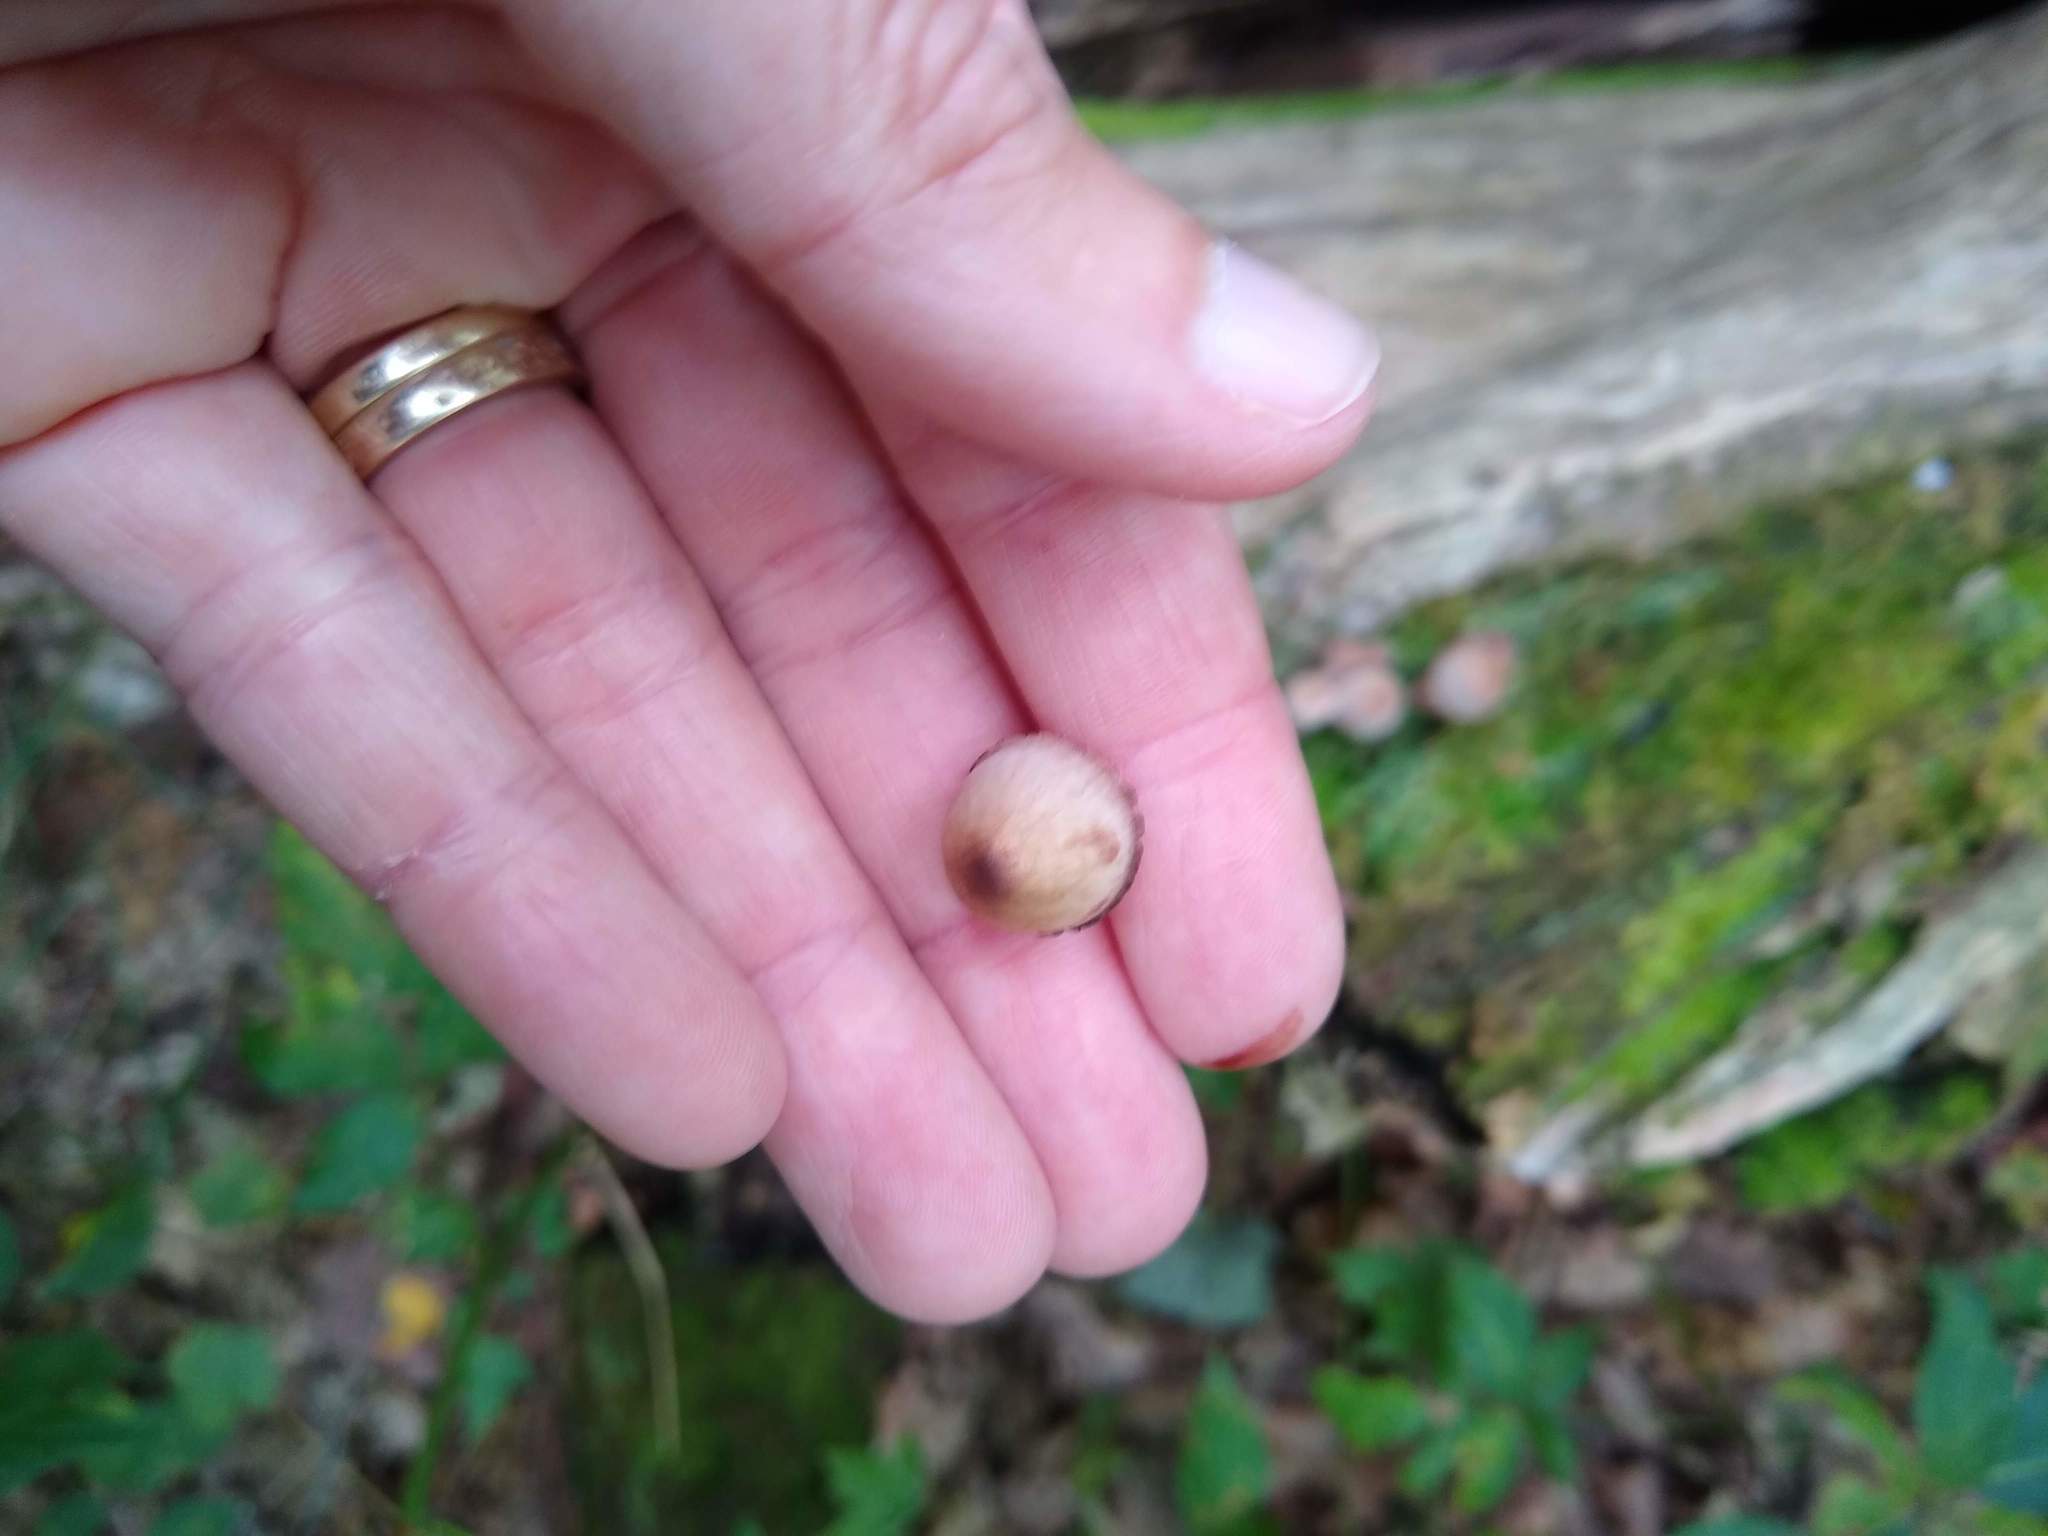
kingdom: Fungi
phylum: Basidiomycota
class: Agaricomycetes
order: Agaricales
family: Mycenaceae
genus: Mycena
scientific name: Mycena haematopus
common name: Burgundydrop bonnet
